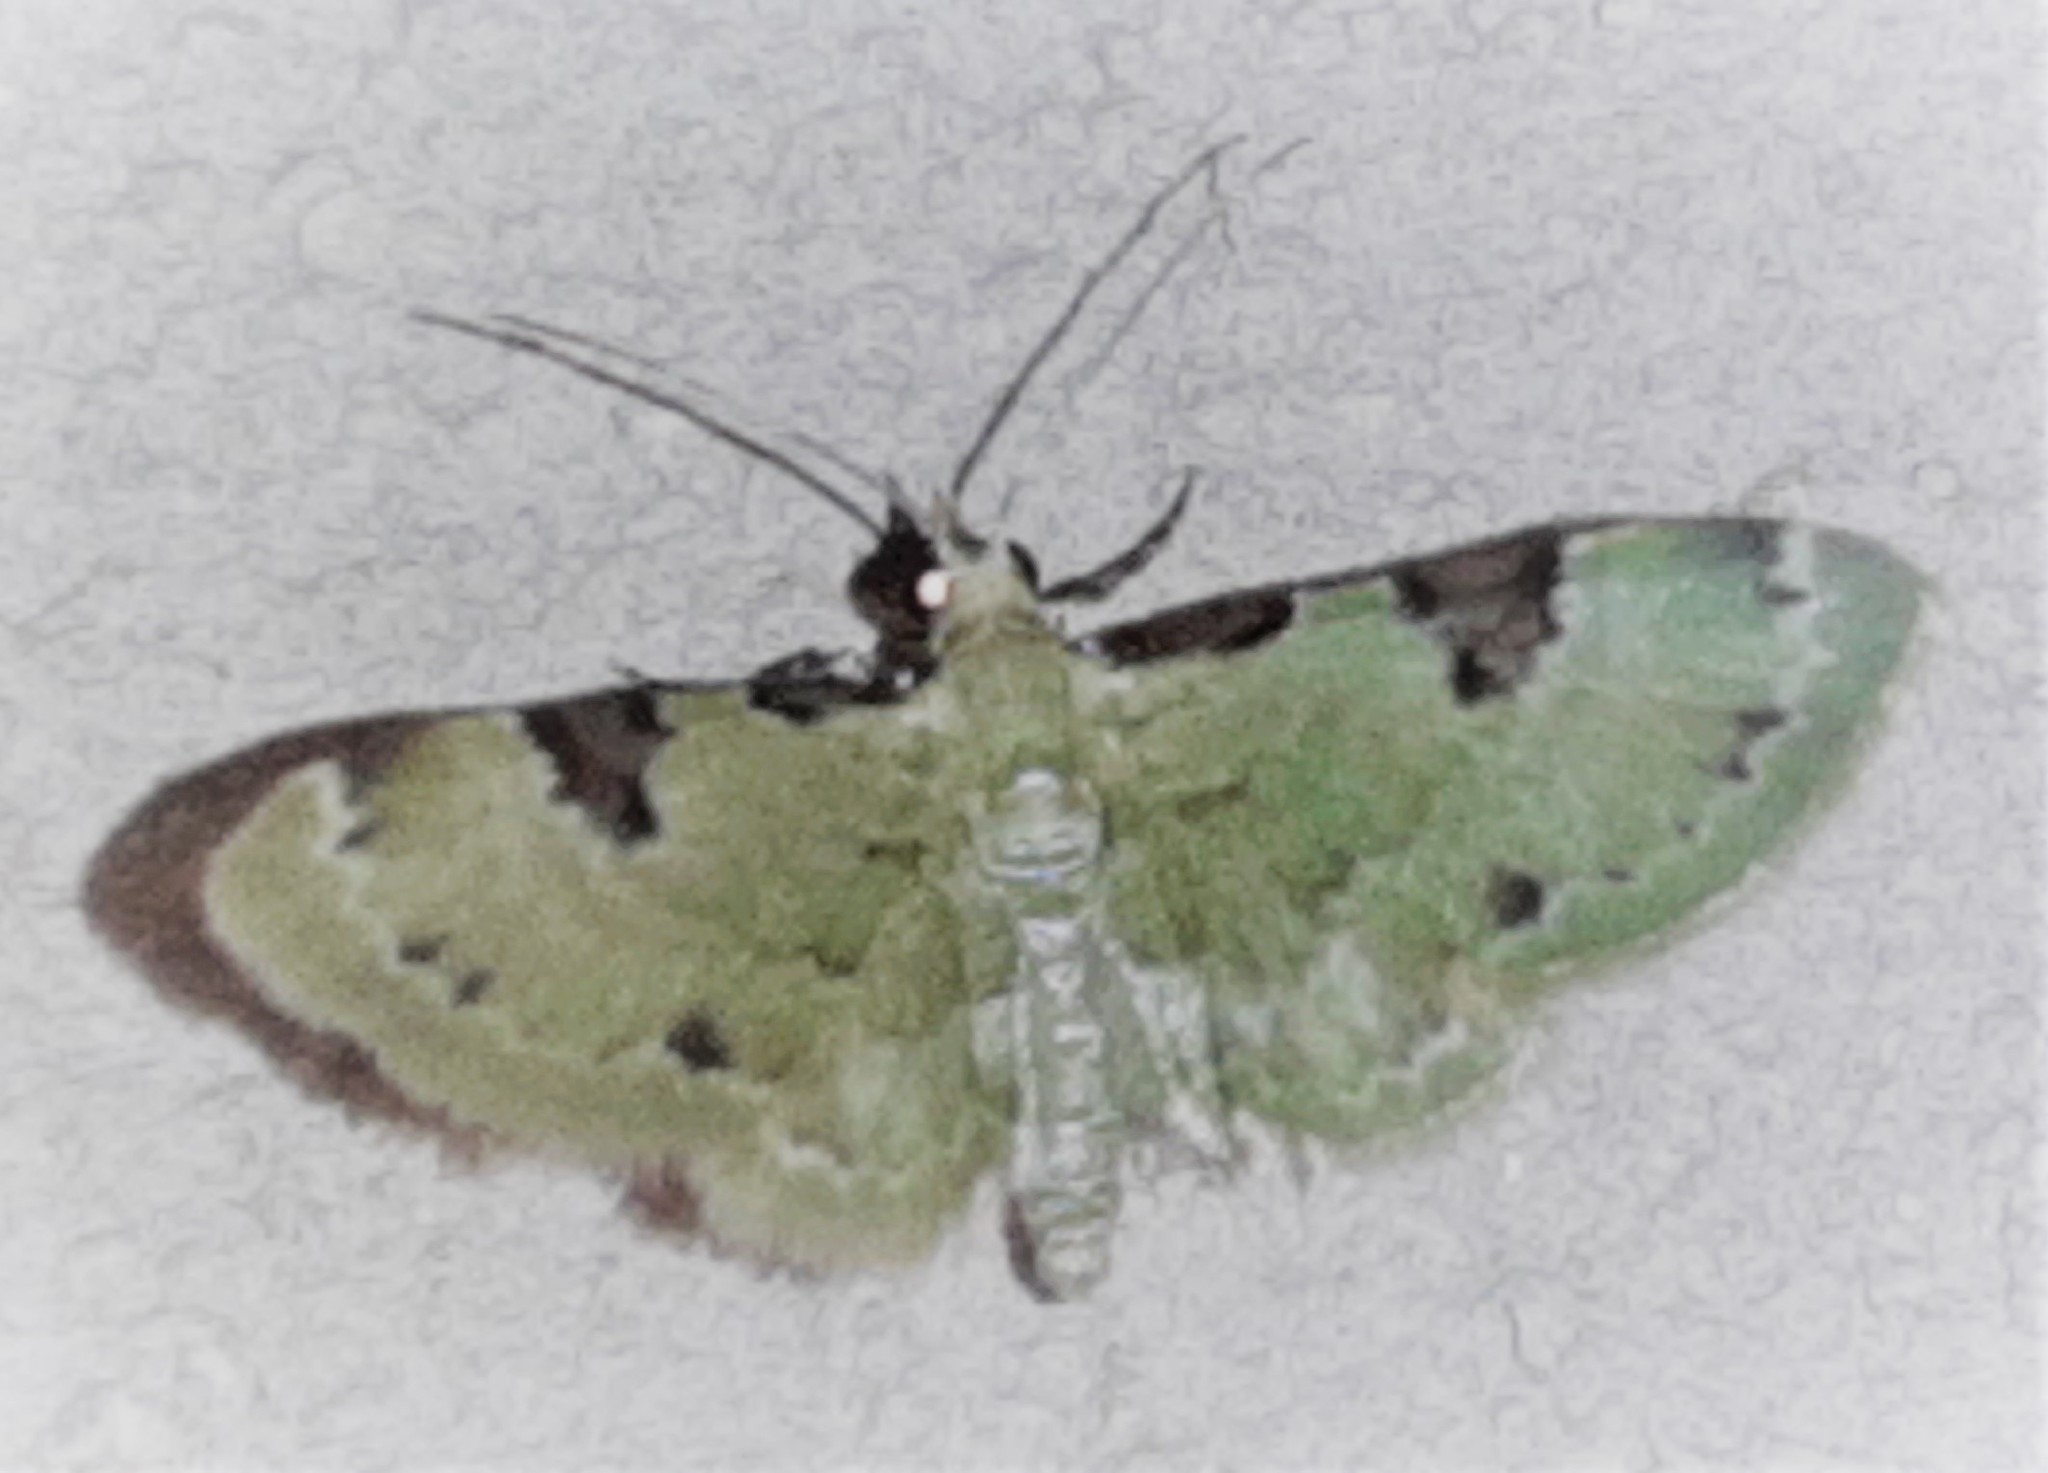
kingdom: Animalia
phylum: Arthropoda
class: Insecta
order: Lepidoptera
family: Geometridae
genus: Eupithecia
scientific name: Eupithecia tenera
